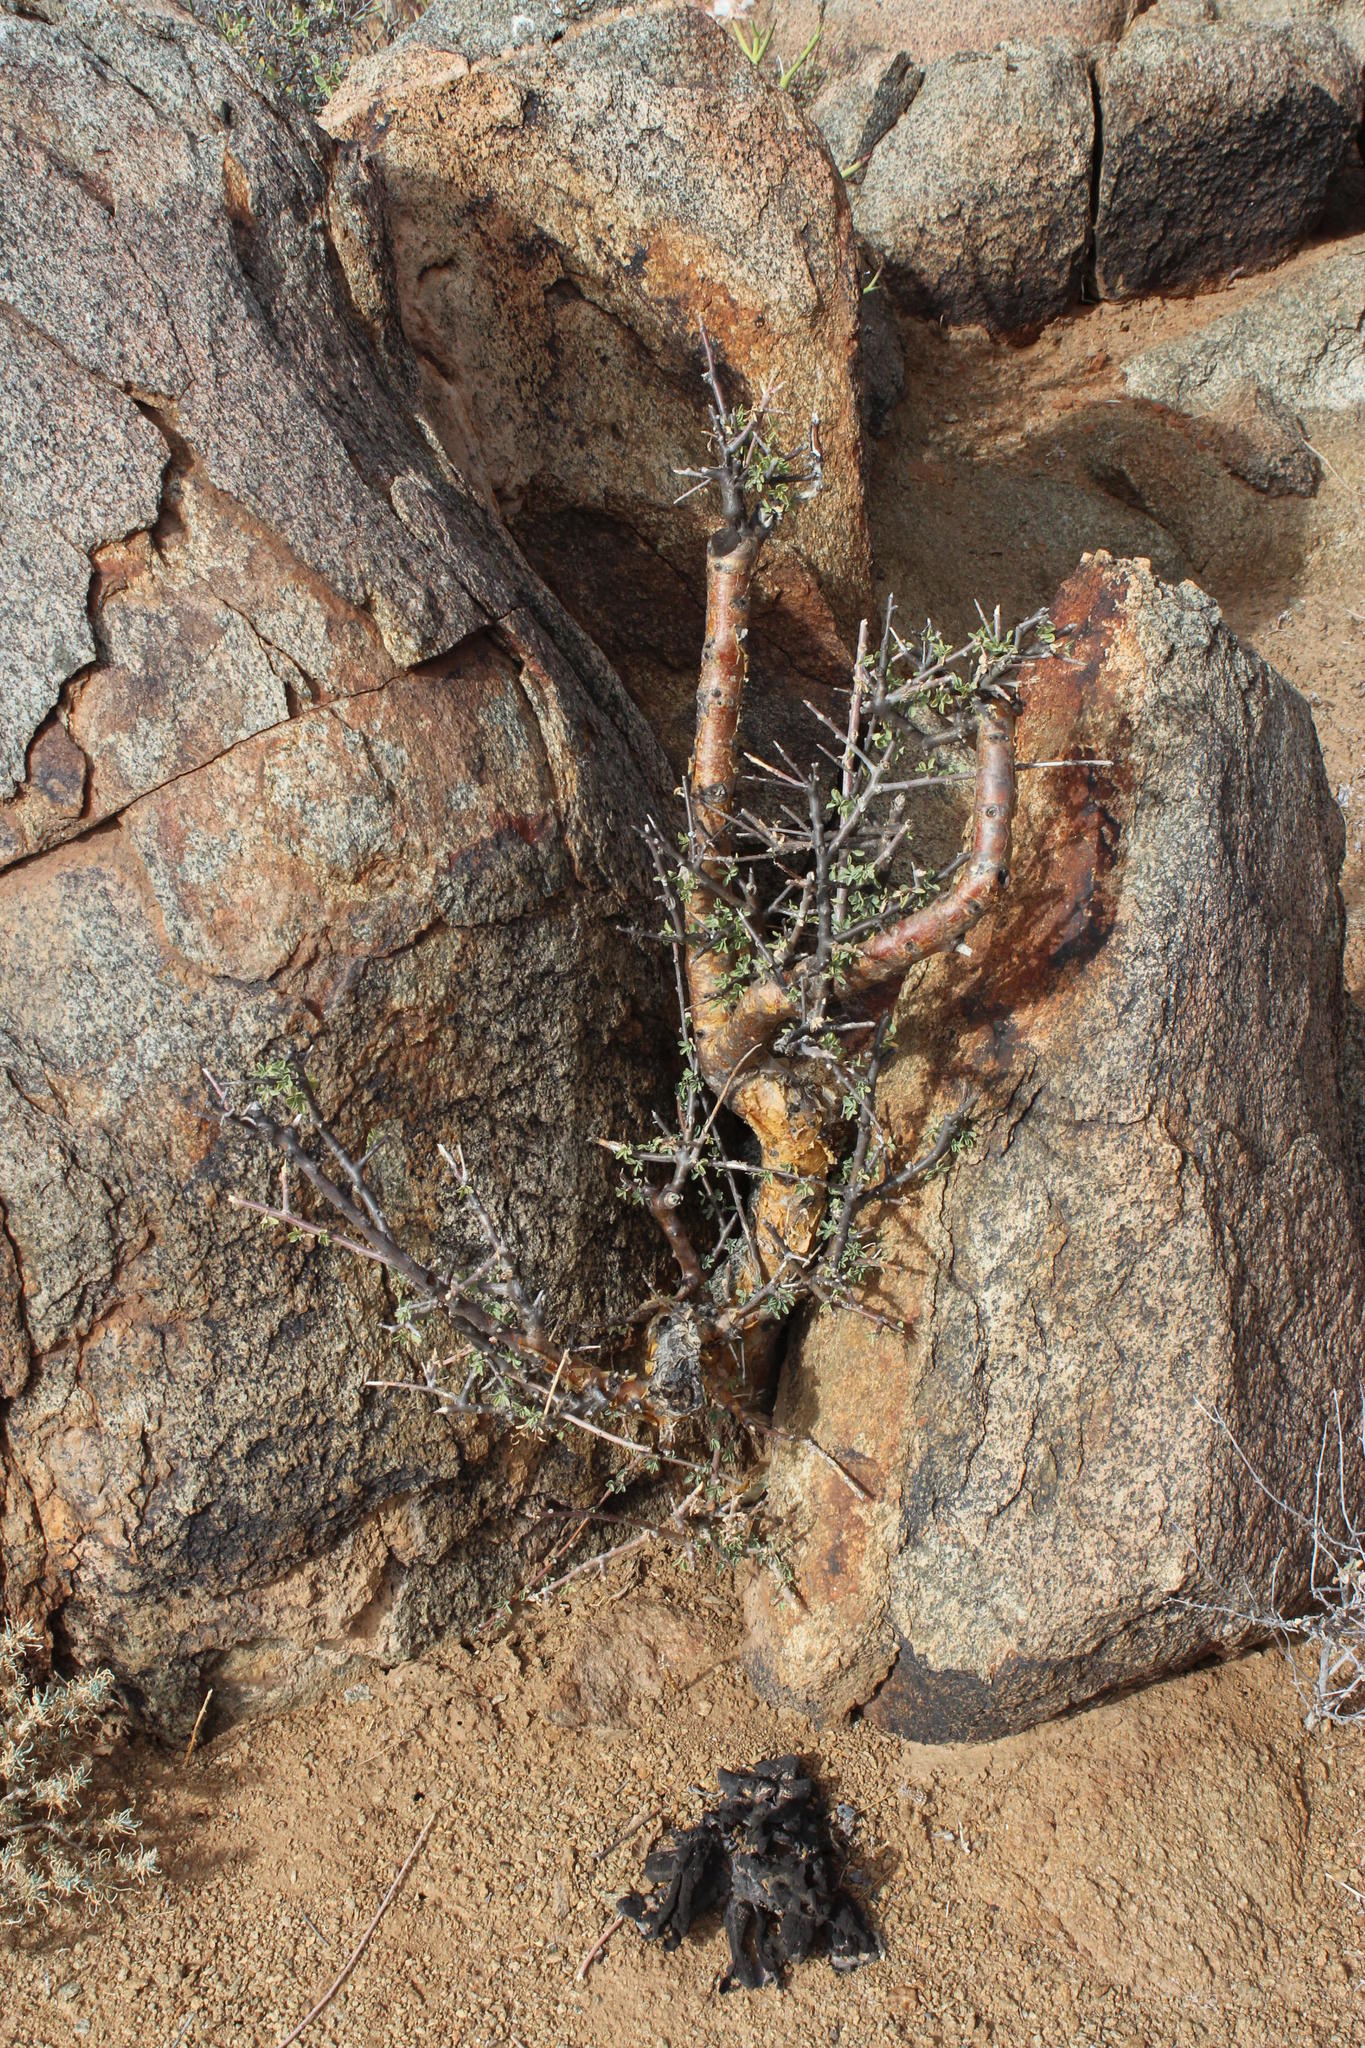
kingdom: Plantae
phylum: Tracheophyta
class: Magnoliopsida
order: Malpighiales
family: Euphorbiaceae
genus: Euphorbia
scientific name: Euphorbia guerichiana
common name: Paper-barked milkbush
